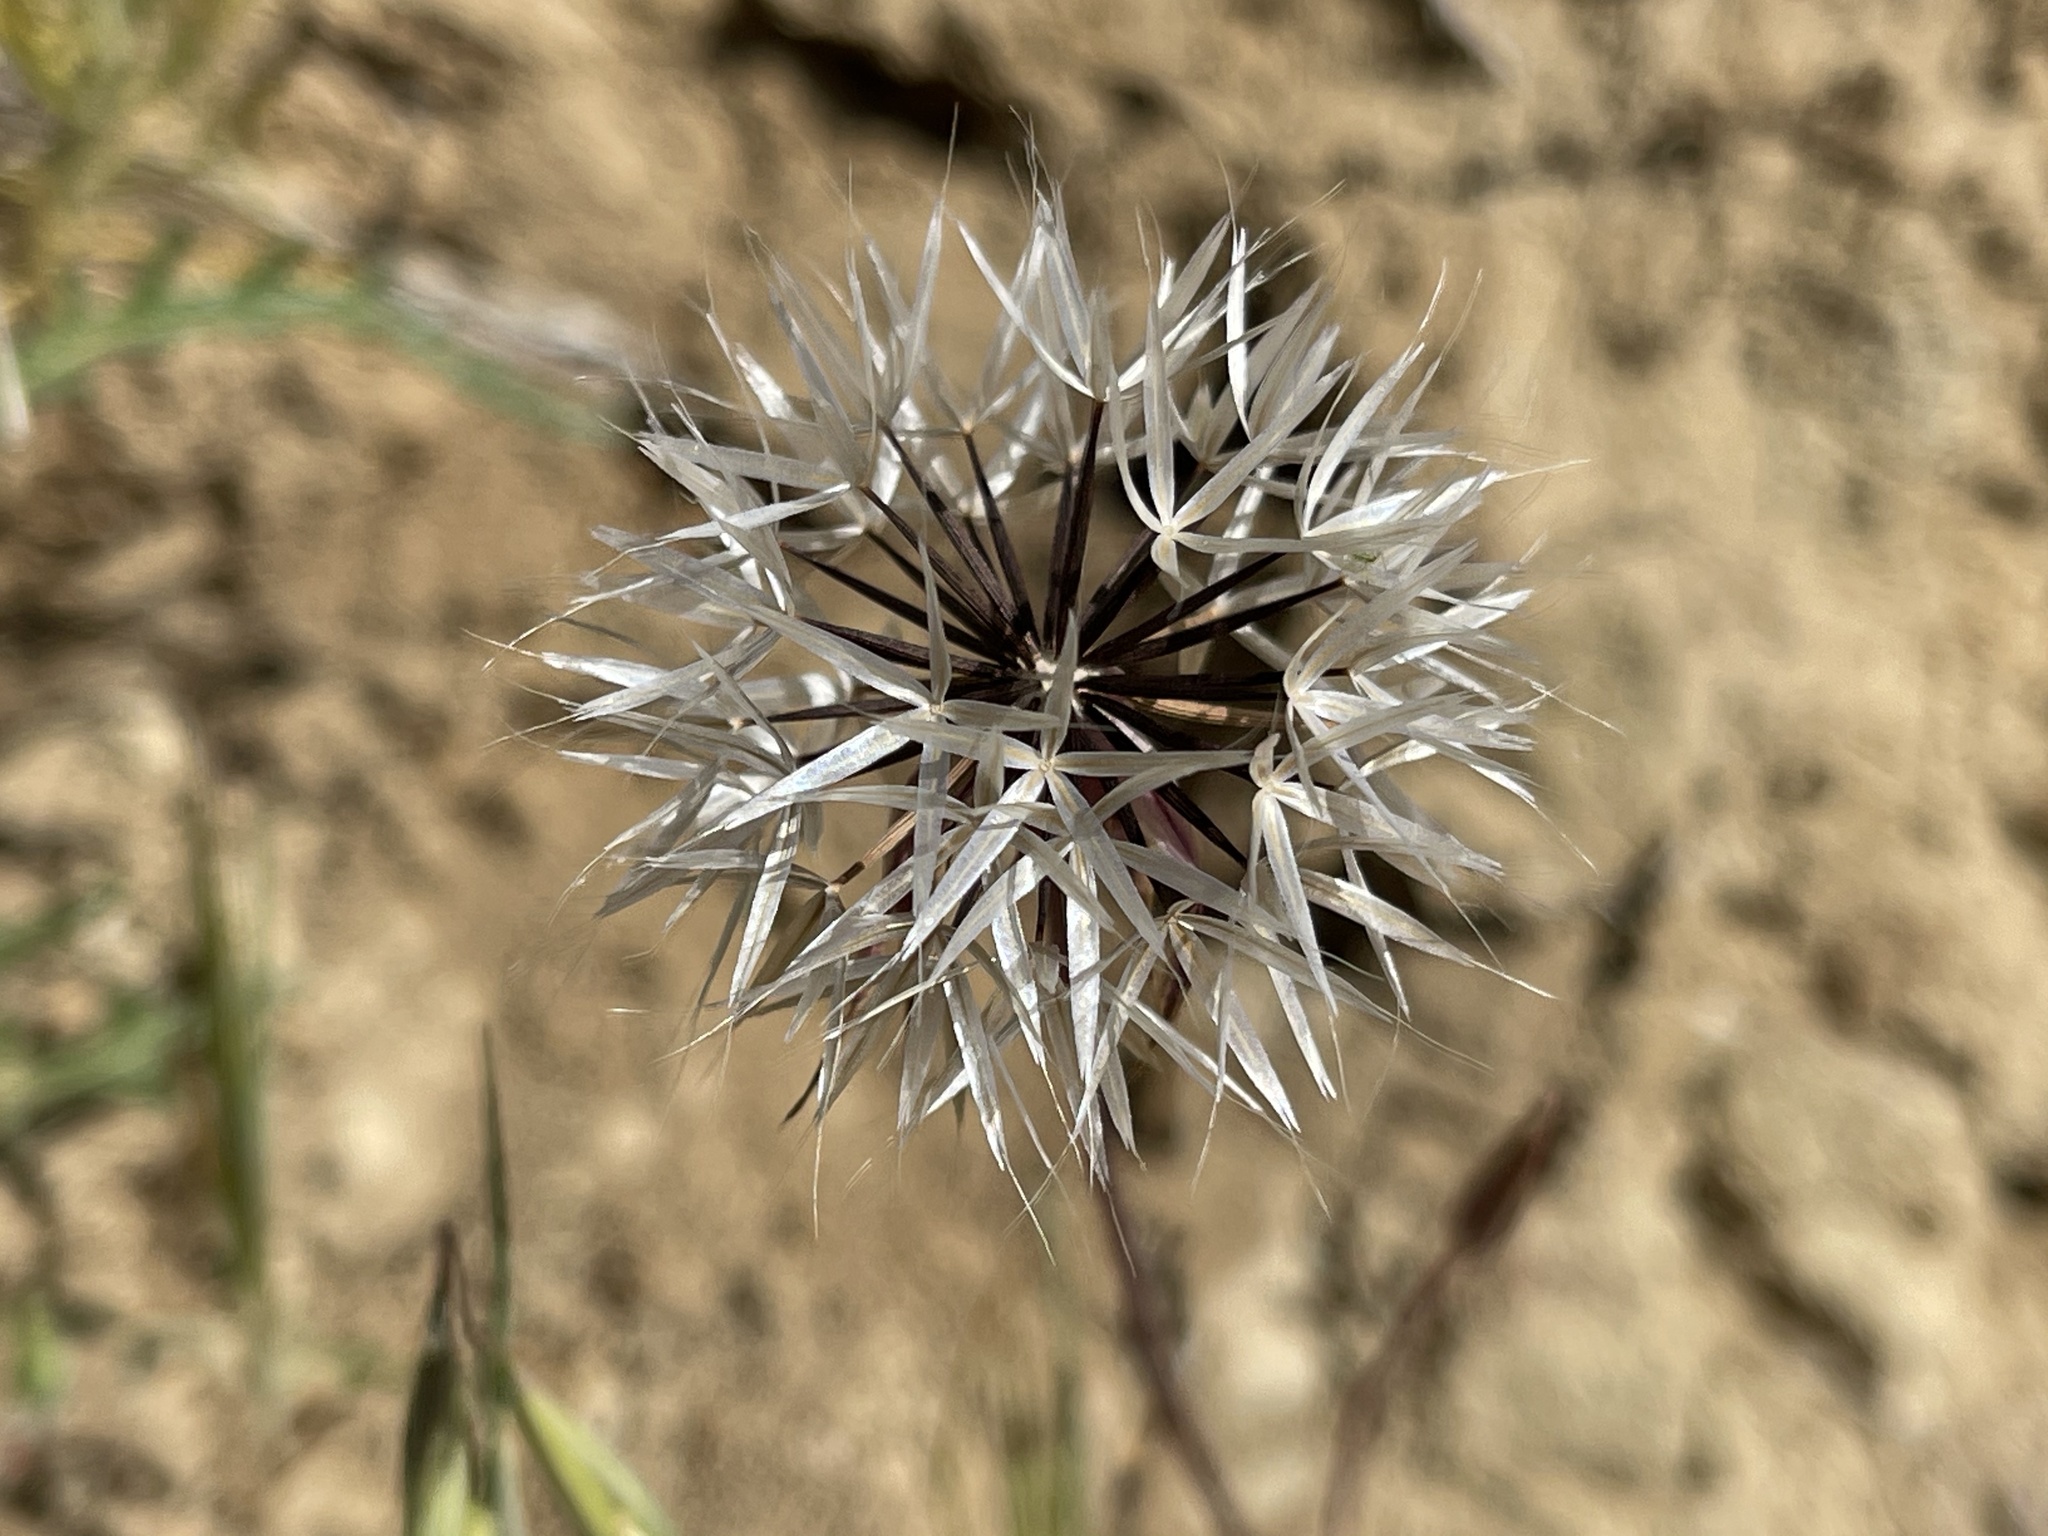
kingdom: Plantae
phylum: Tracheophyta
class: Magnoliopsida
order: Asterales
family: Asteraceae
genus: Microseris
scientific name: Microseris lindleyi
